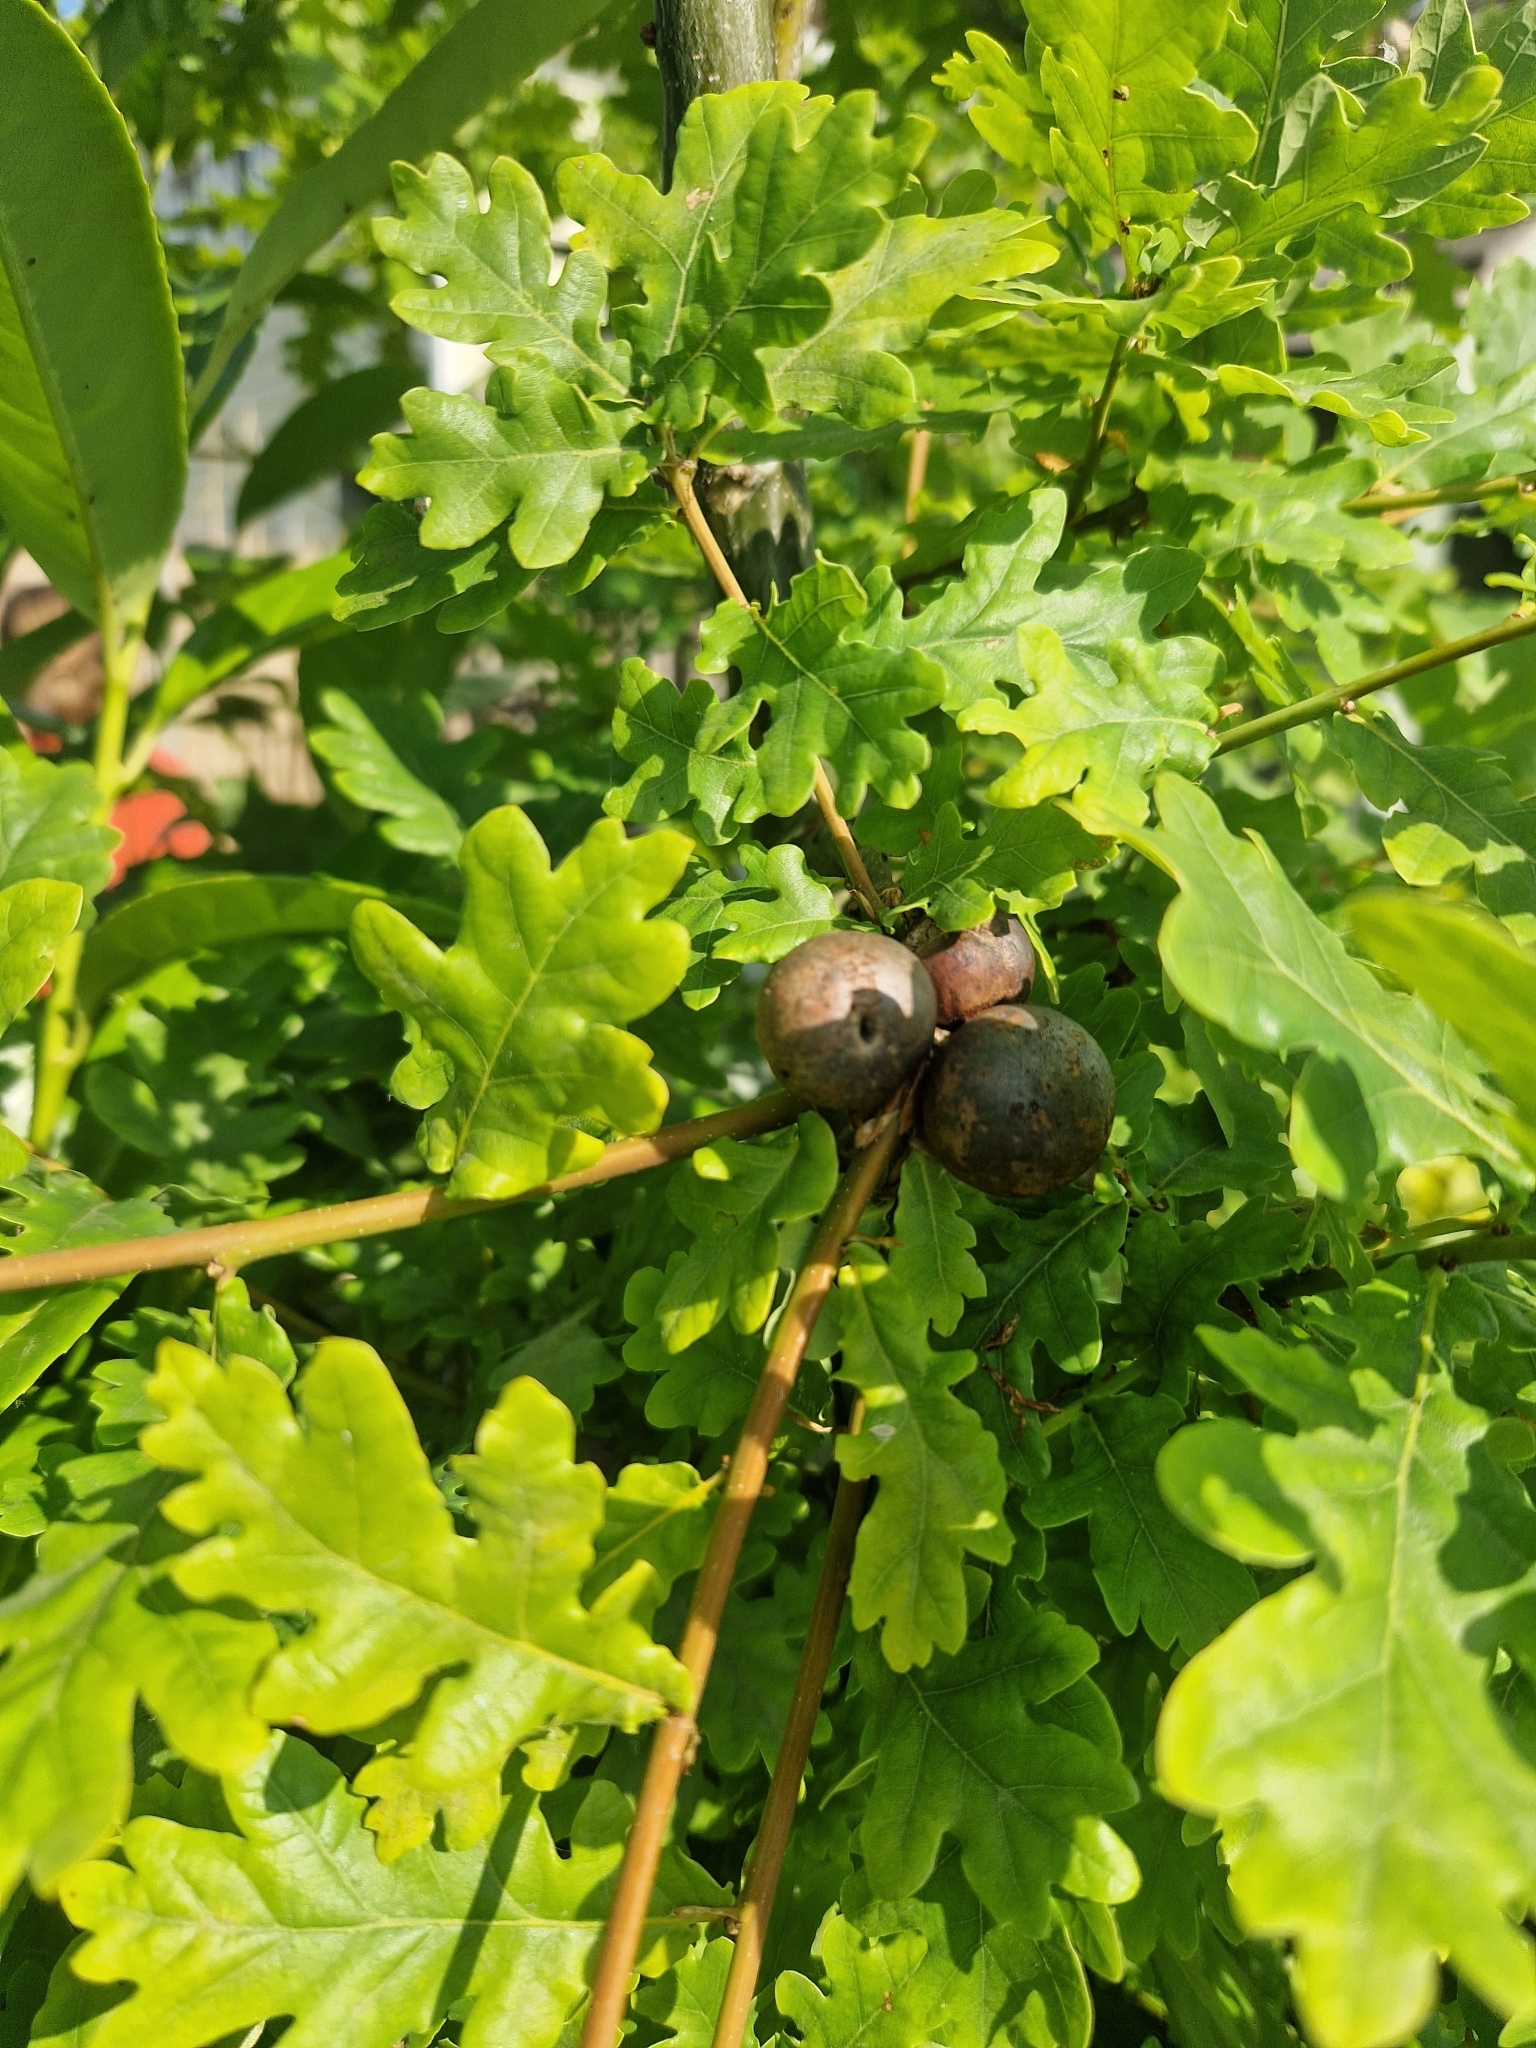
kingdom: Animalia
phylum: Arthropoda
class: Insecta
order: Hymenoptera
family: Cynipidae
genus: Andricus
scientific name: Andricus kollari
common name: Marble gall
